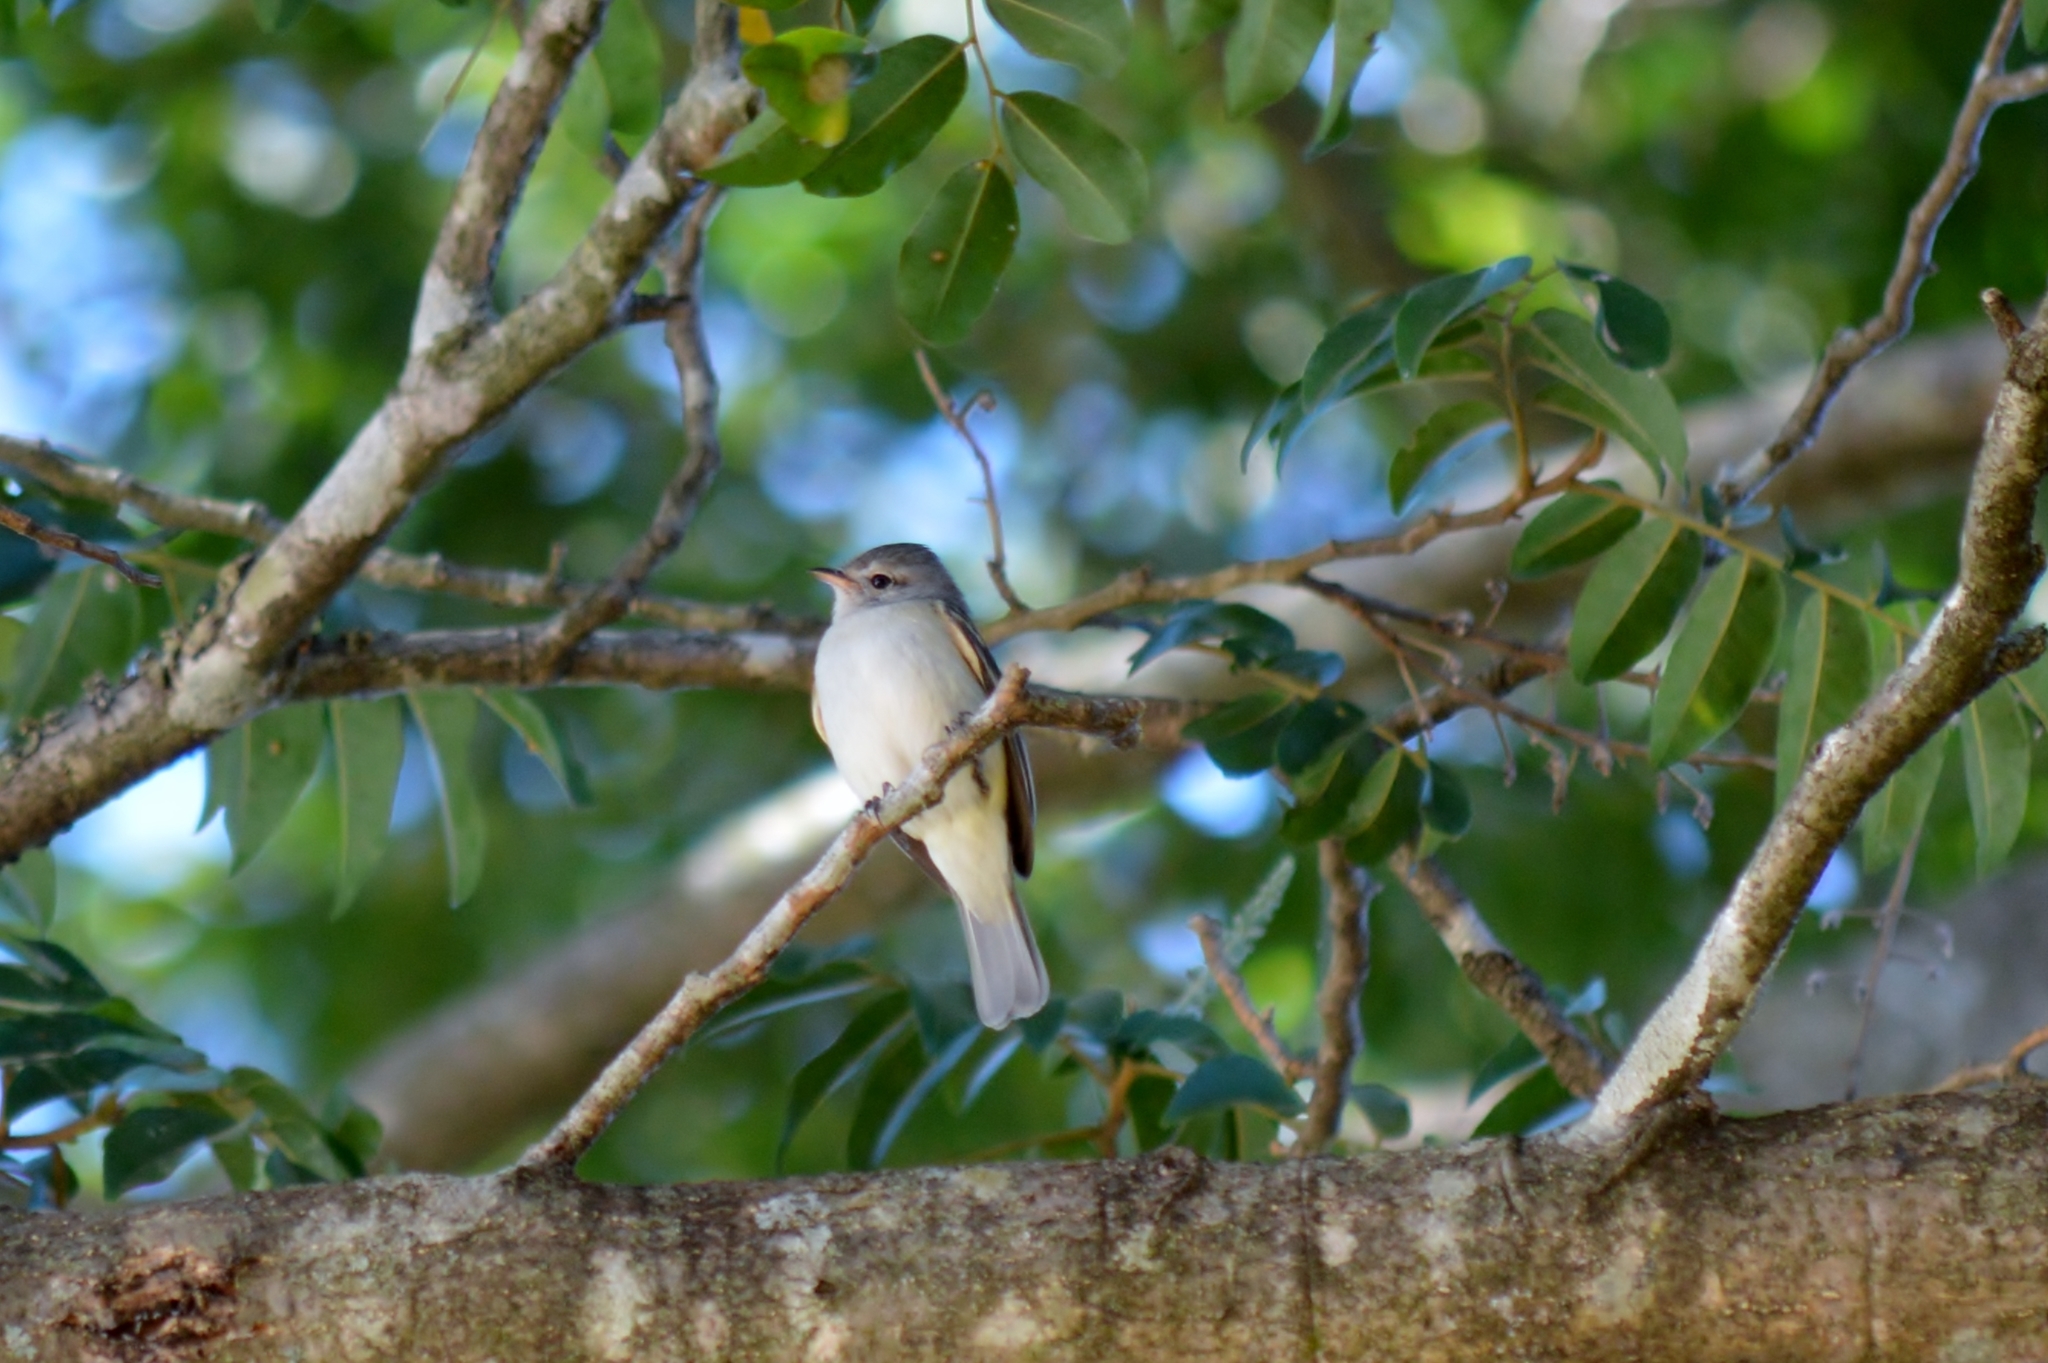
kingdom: Animalia
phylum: Chordata
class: Aves
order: Passeriformes
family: Tyrannidae
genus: Camptostoma
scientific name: Camptostoma obsoletum
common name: Southern beardless-tyrannulet
